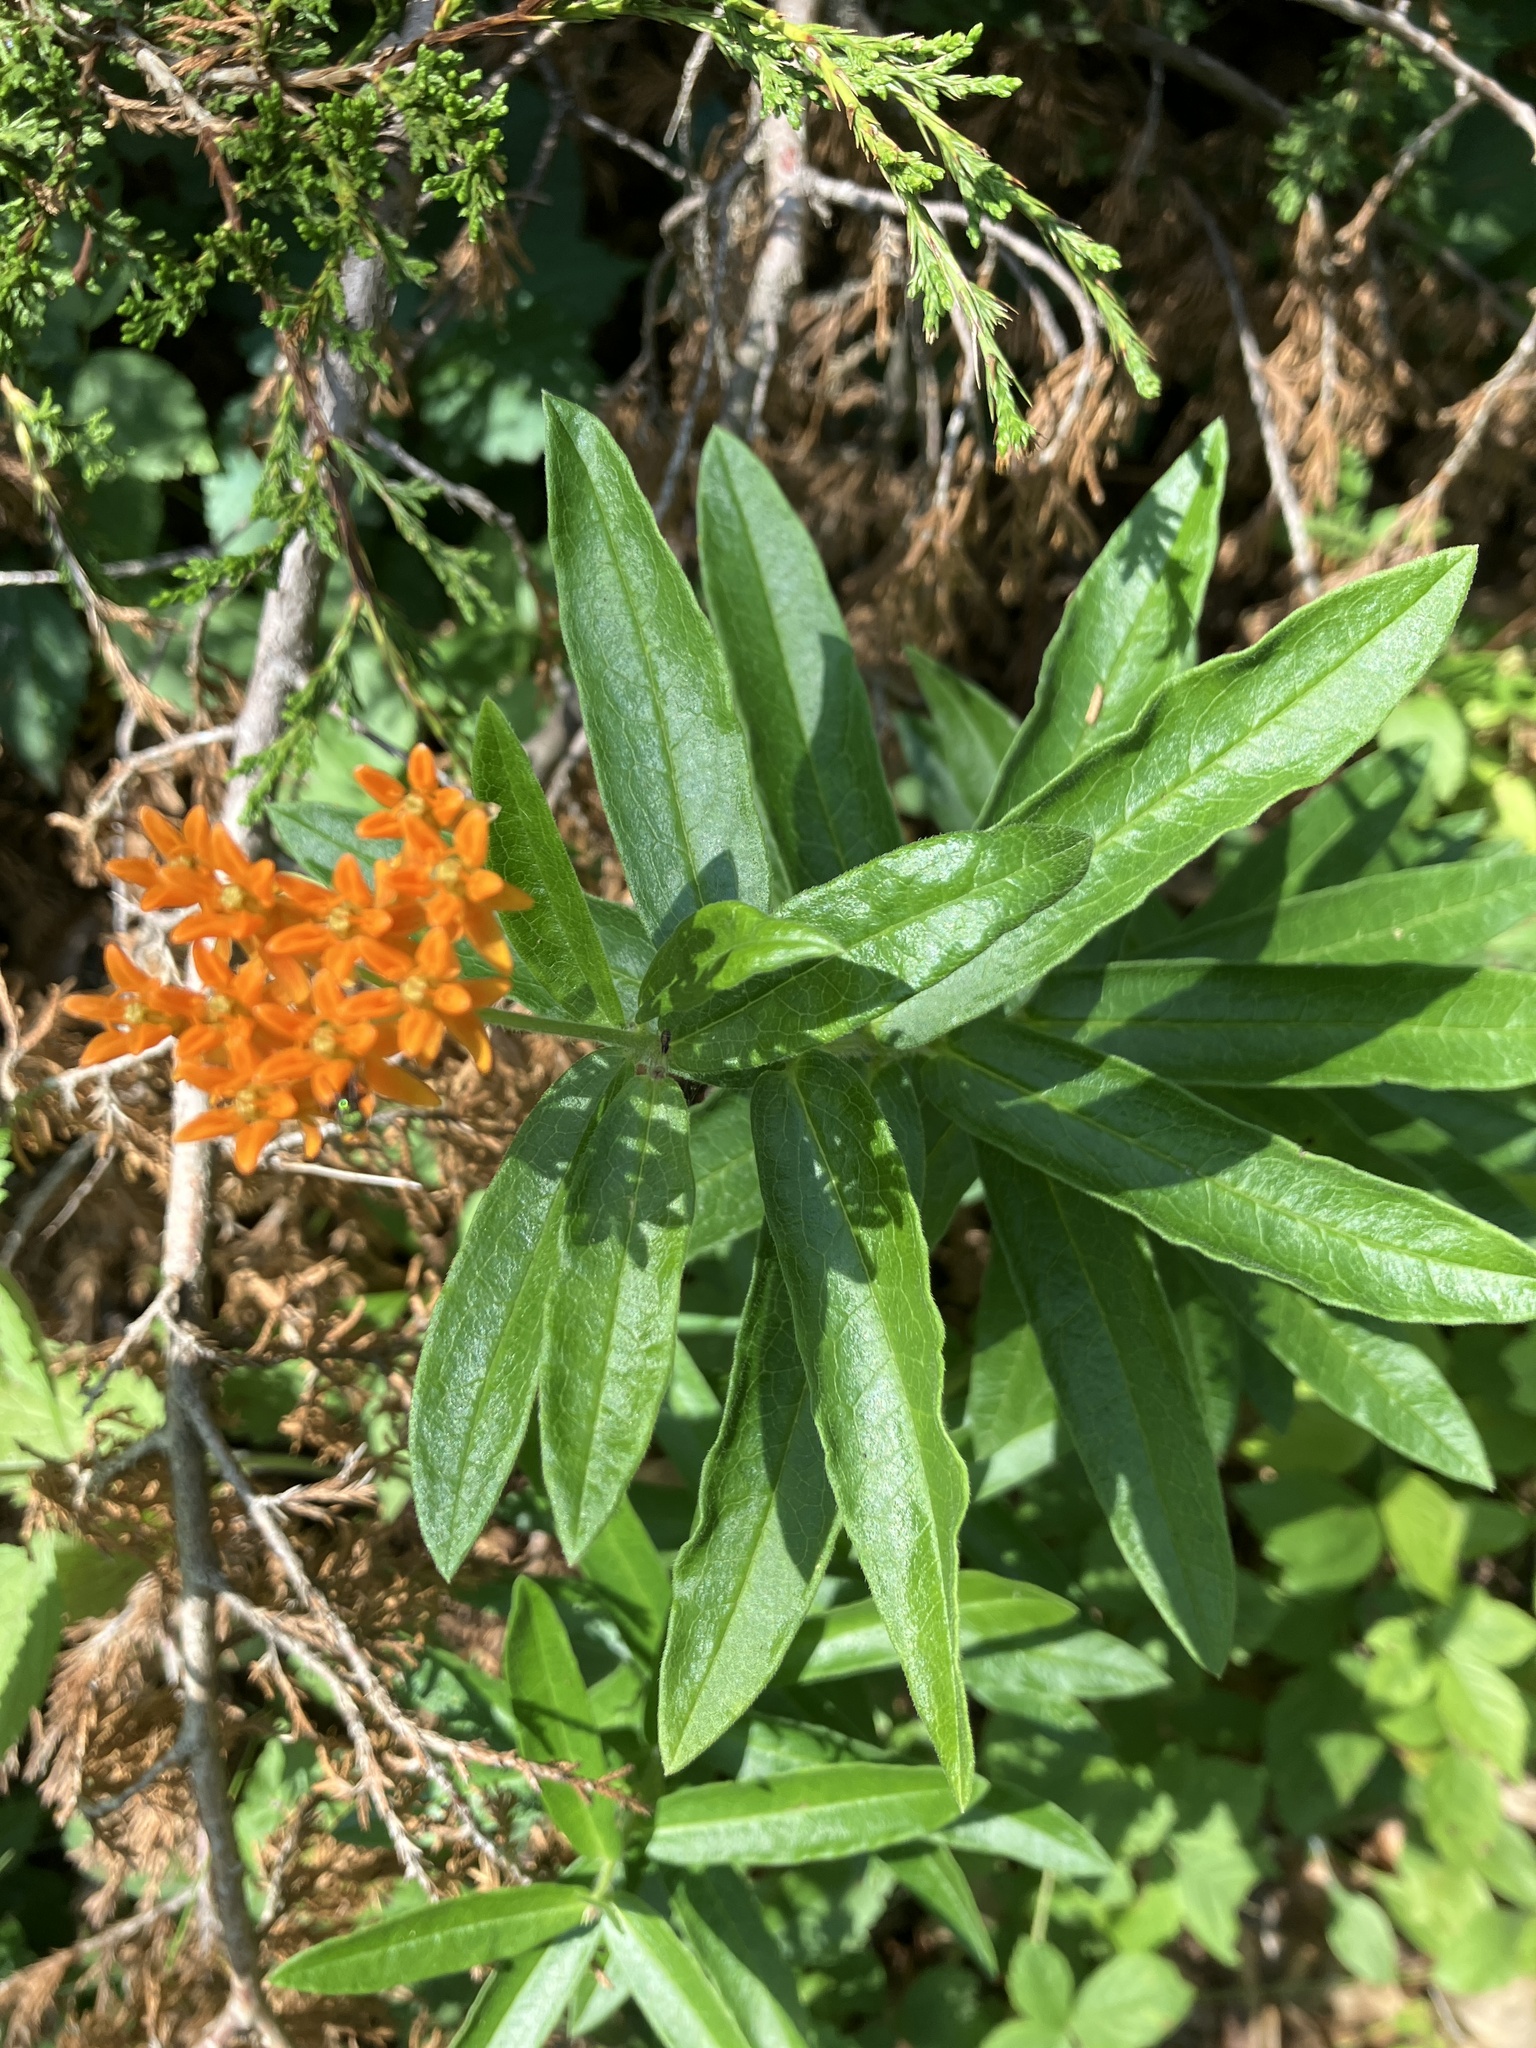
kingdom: Plantae
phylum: Tracheophyta
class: Magnoliopsida
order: Gentianales
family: Apocynaceae
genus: Asclepias
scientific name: Asclepias tuberosa
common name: Butterfly milkweed
